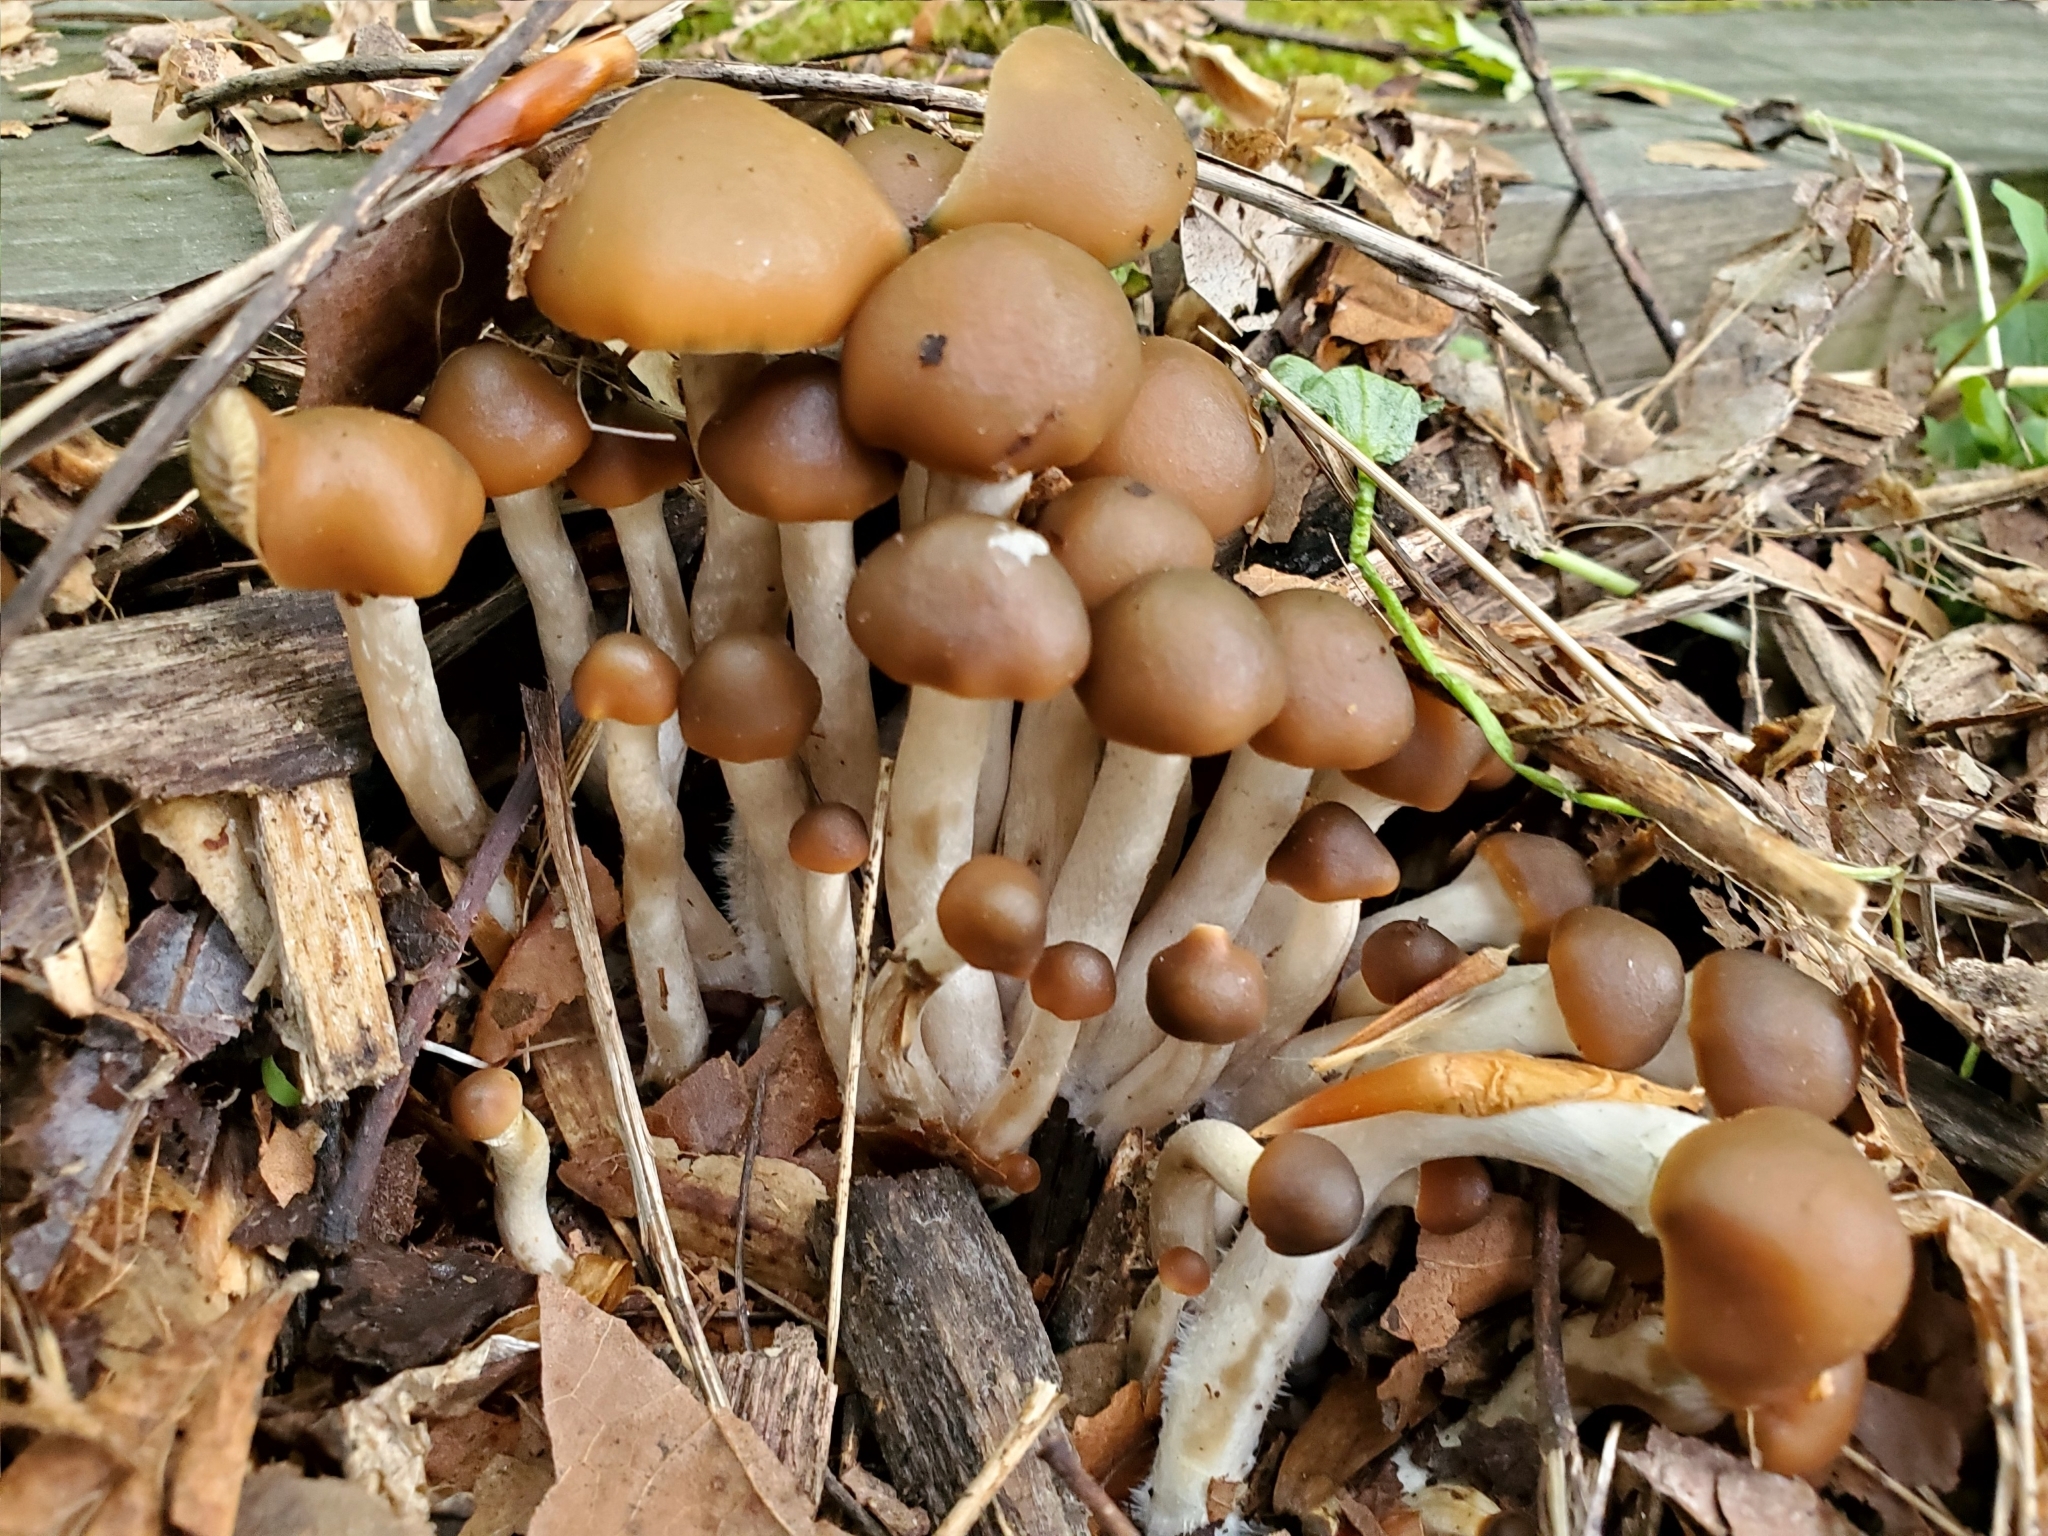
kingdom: Fungi
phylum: Basidiomycota
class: Agaricomycetes
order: Agaricales
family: Hymenogastraceae
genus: Psilocybe
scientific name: Psilocybe ovoideocystidiata
